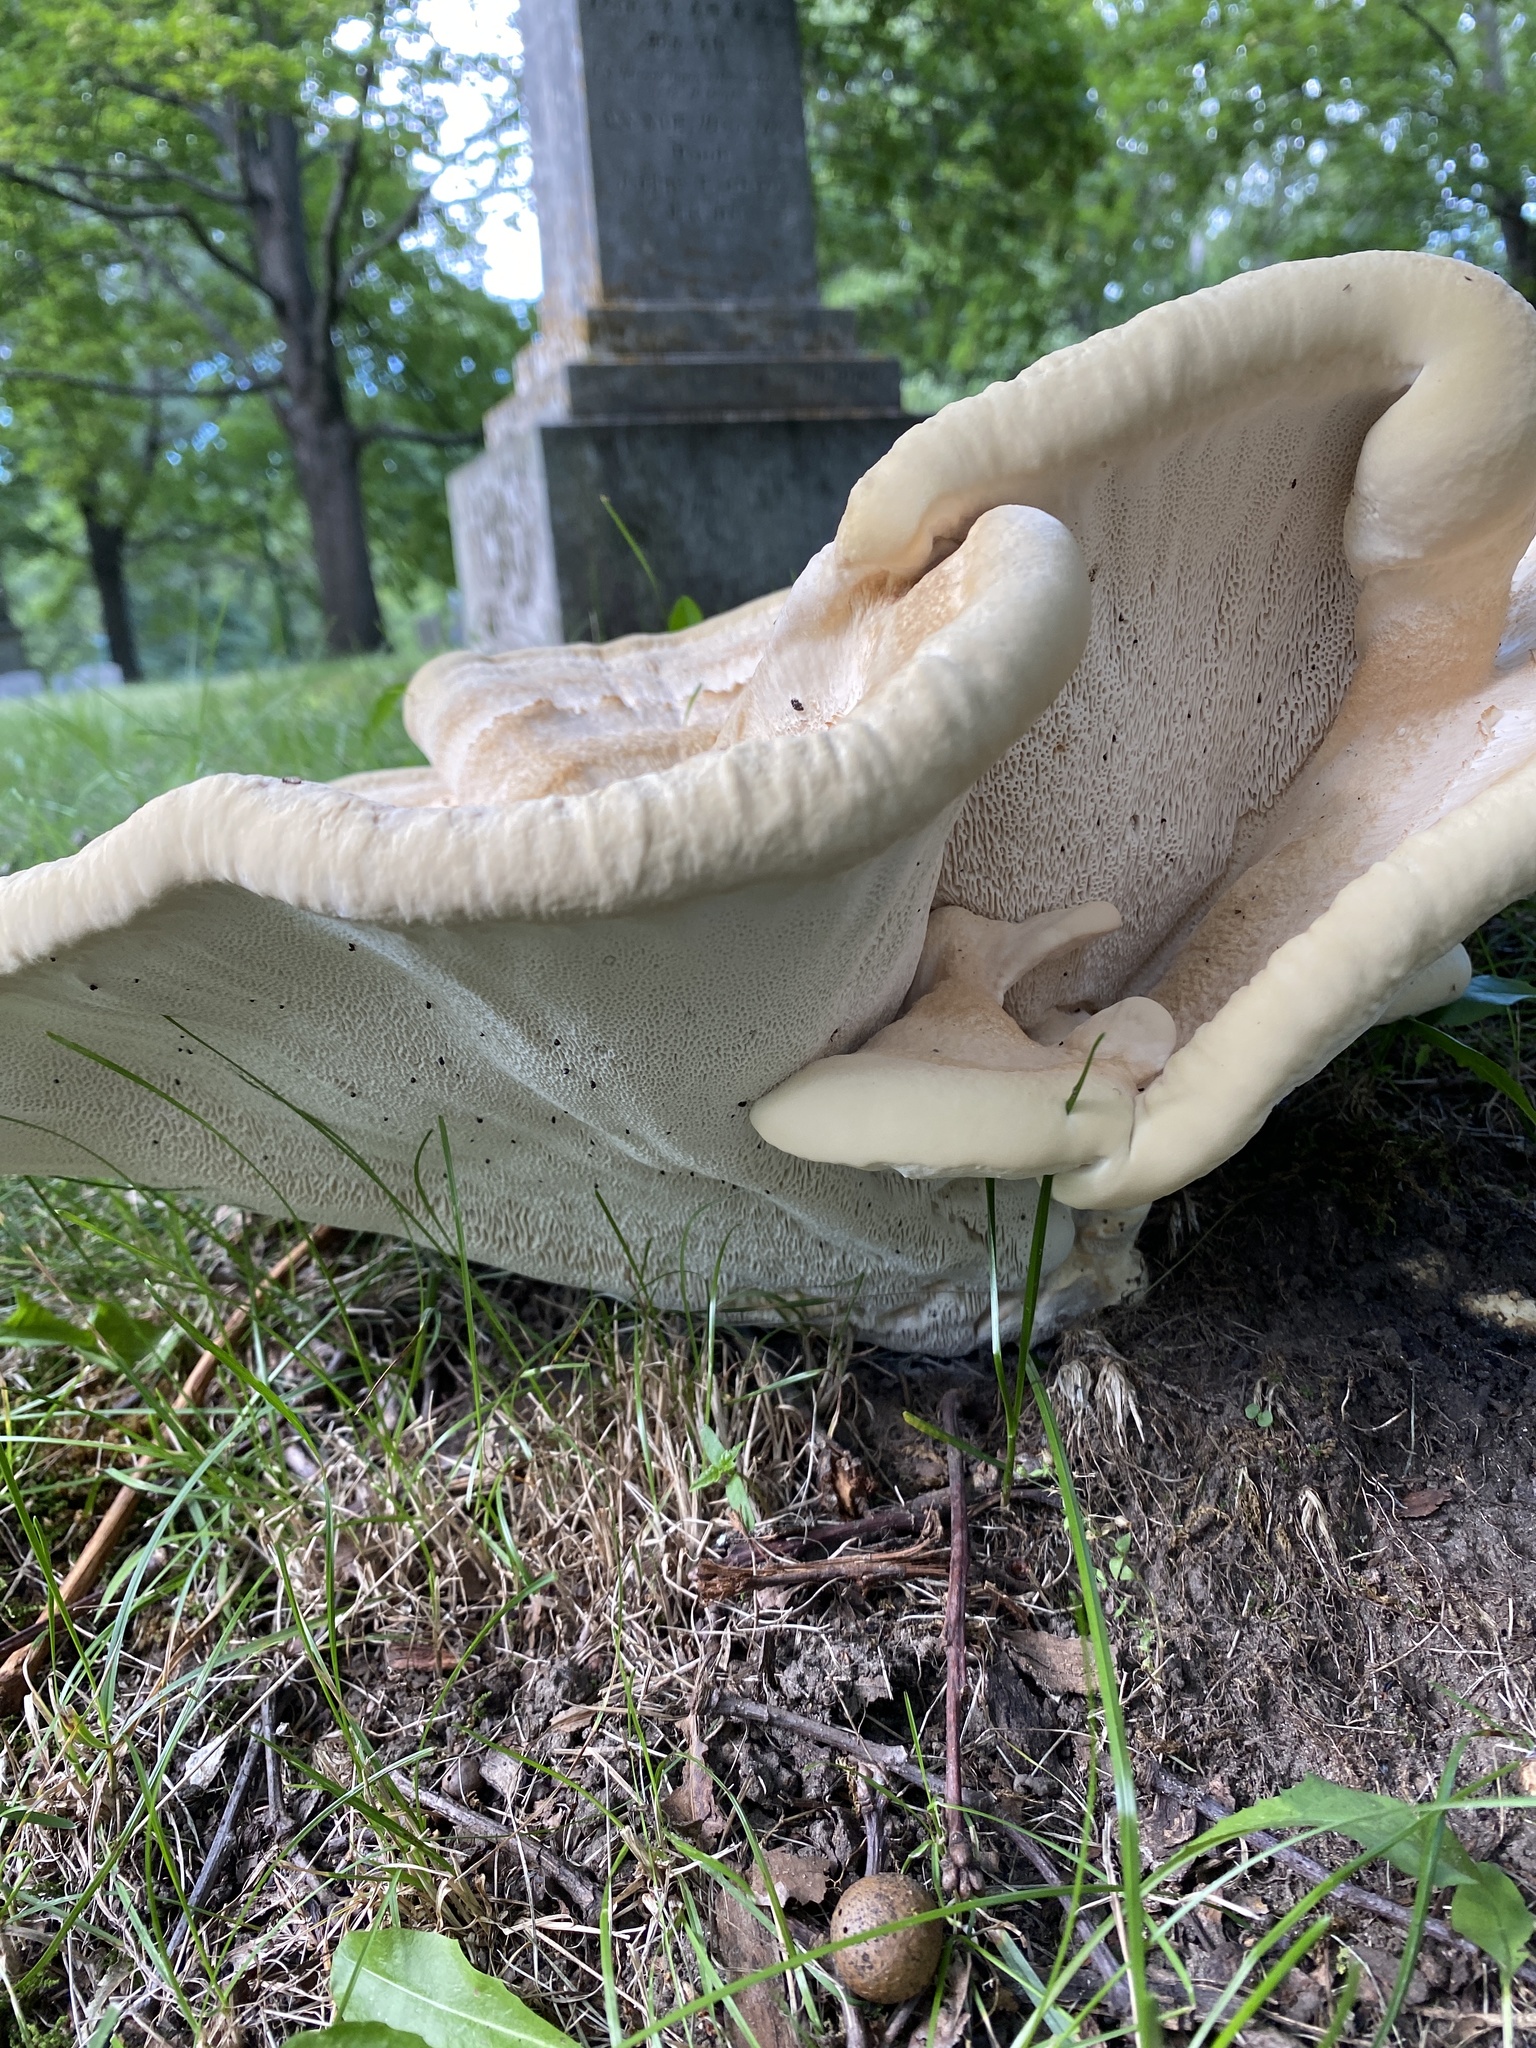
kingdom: Fungi
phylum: Basidiomycota
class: Agaricomycetes
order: Russulales
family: Bondarzewiaceae
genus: Bondarzewia
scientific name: Bondarzewia berkeleyi
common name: Berkeley's polypore
